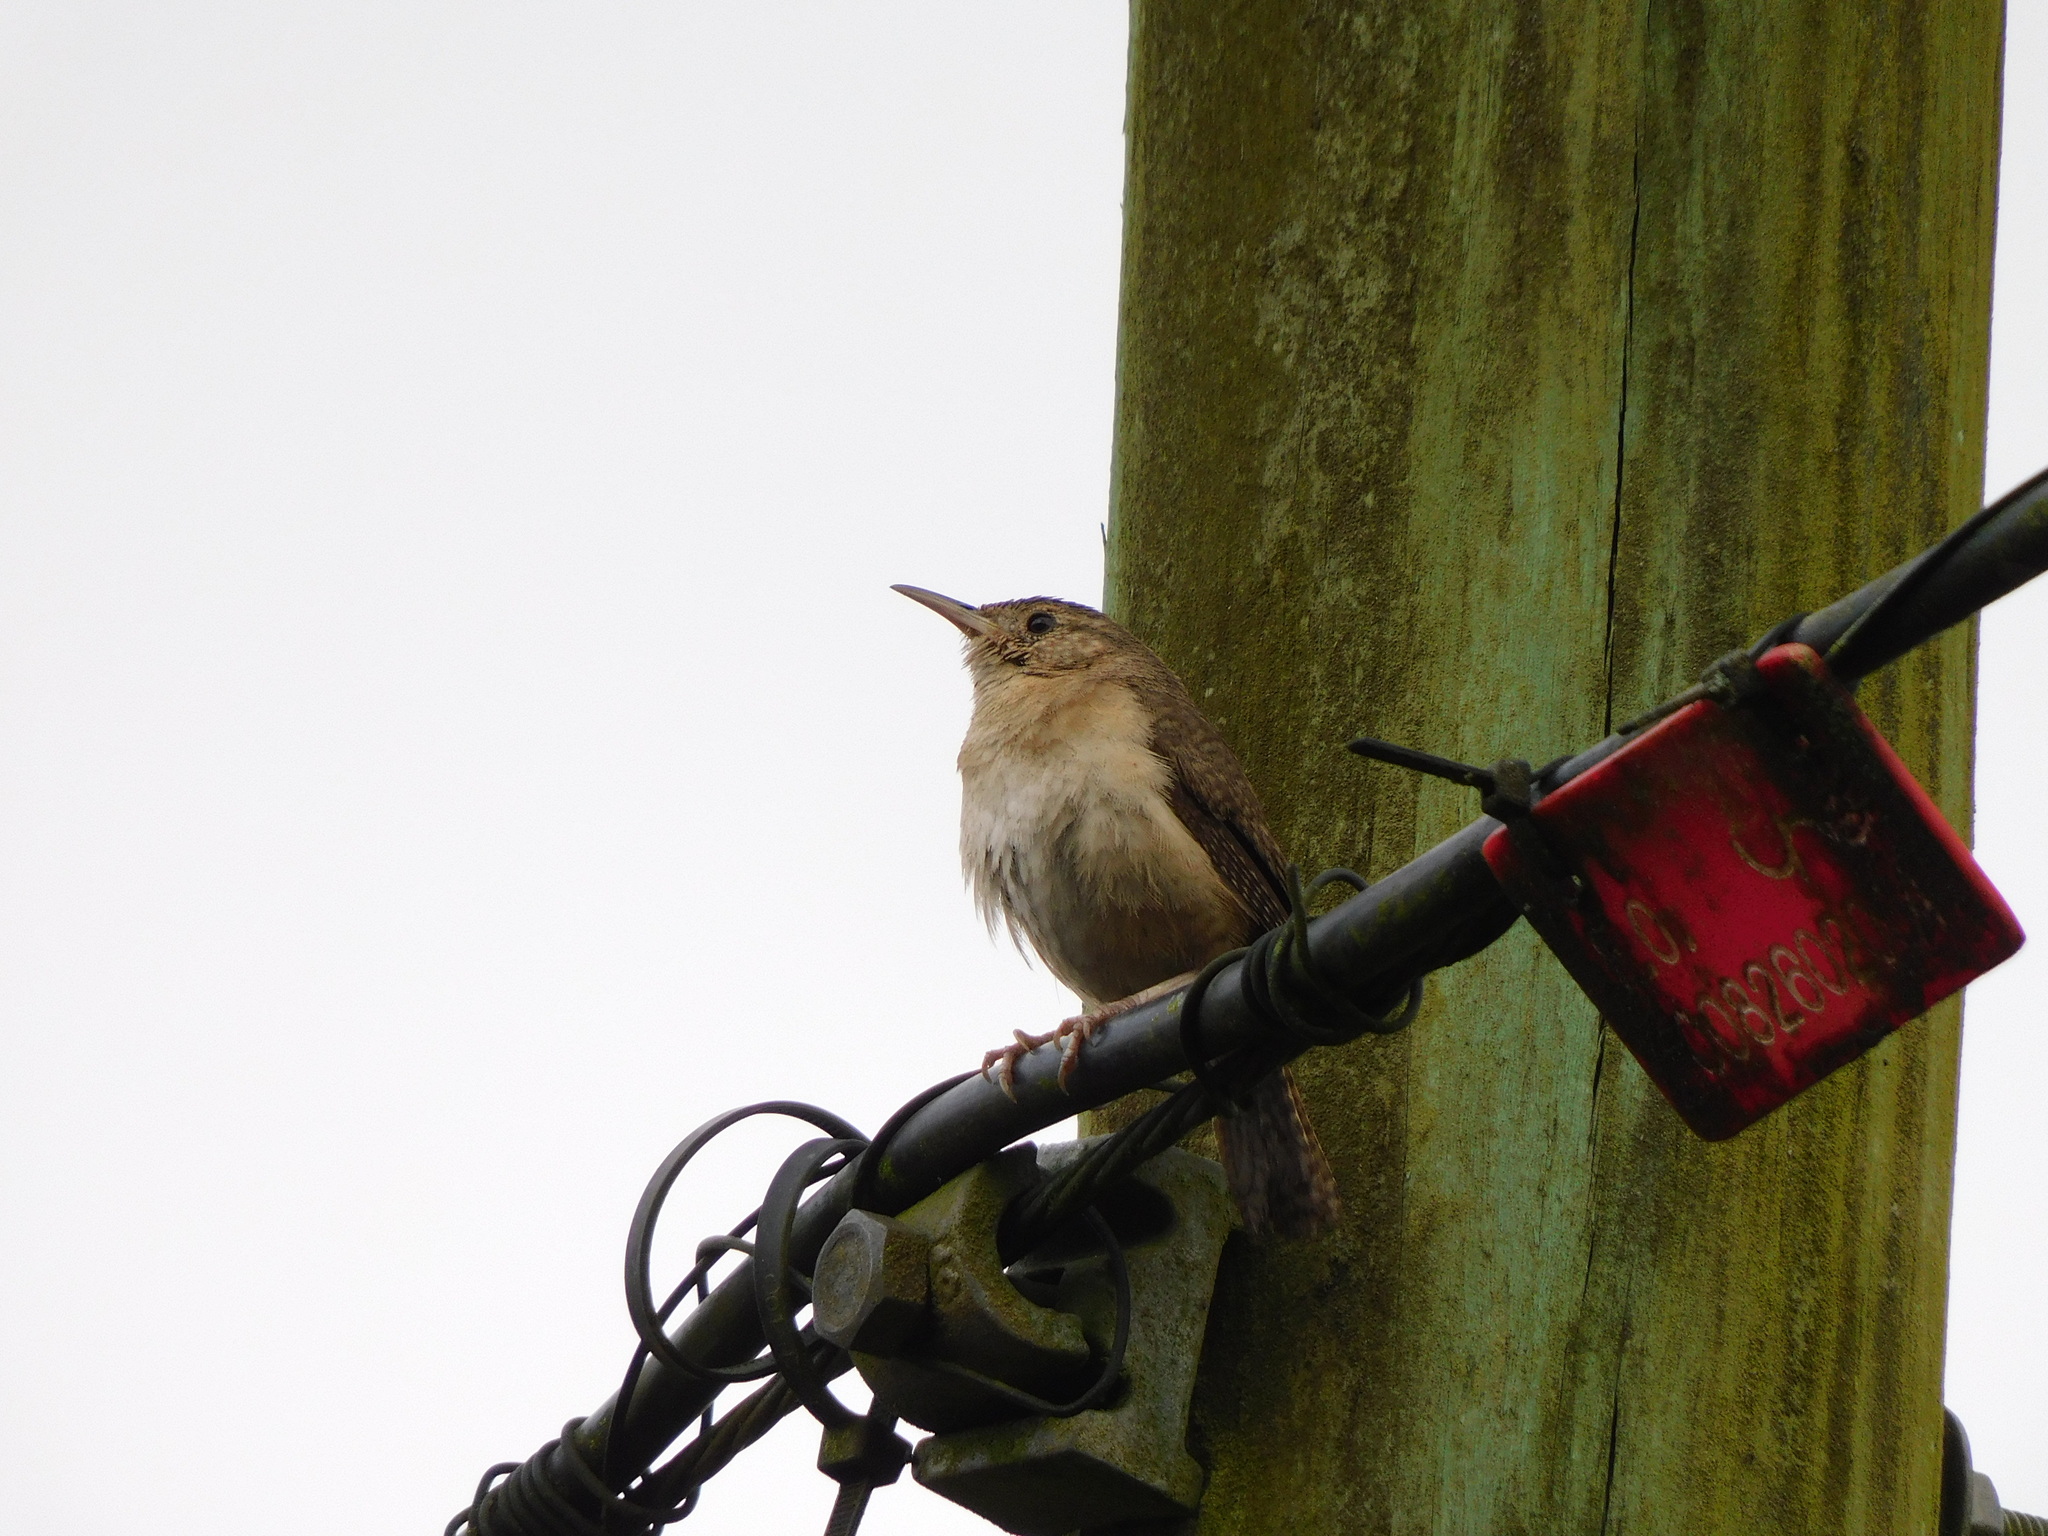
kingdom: Animalia
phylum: Chordata
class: Aves
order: Passeriformes
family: Troglodytidae
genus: Troglodytes
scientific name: Troglodytes aedon
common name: House wren
